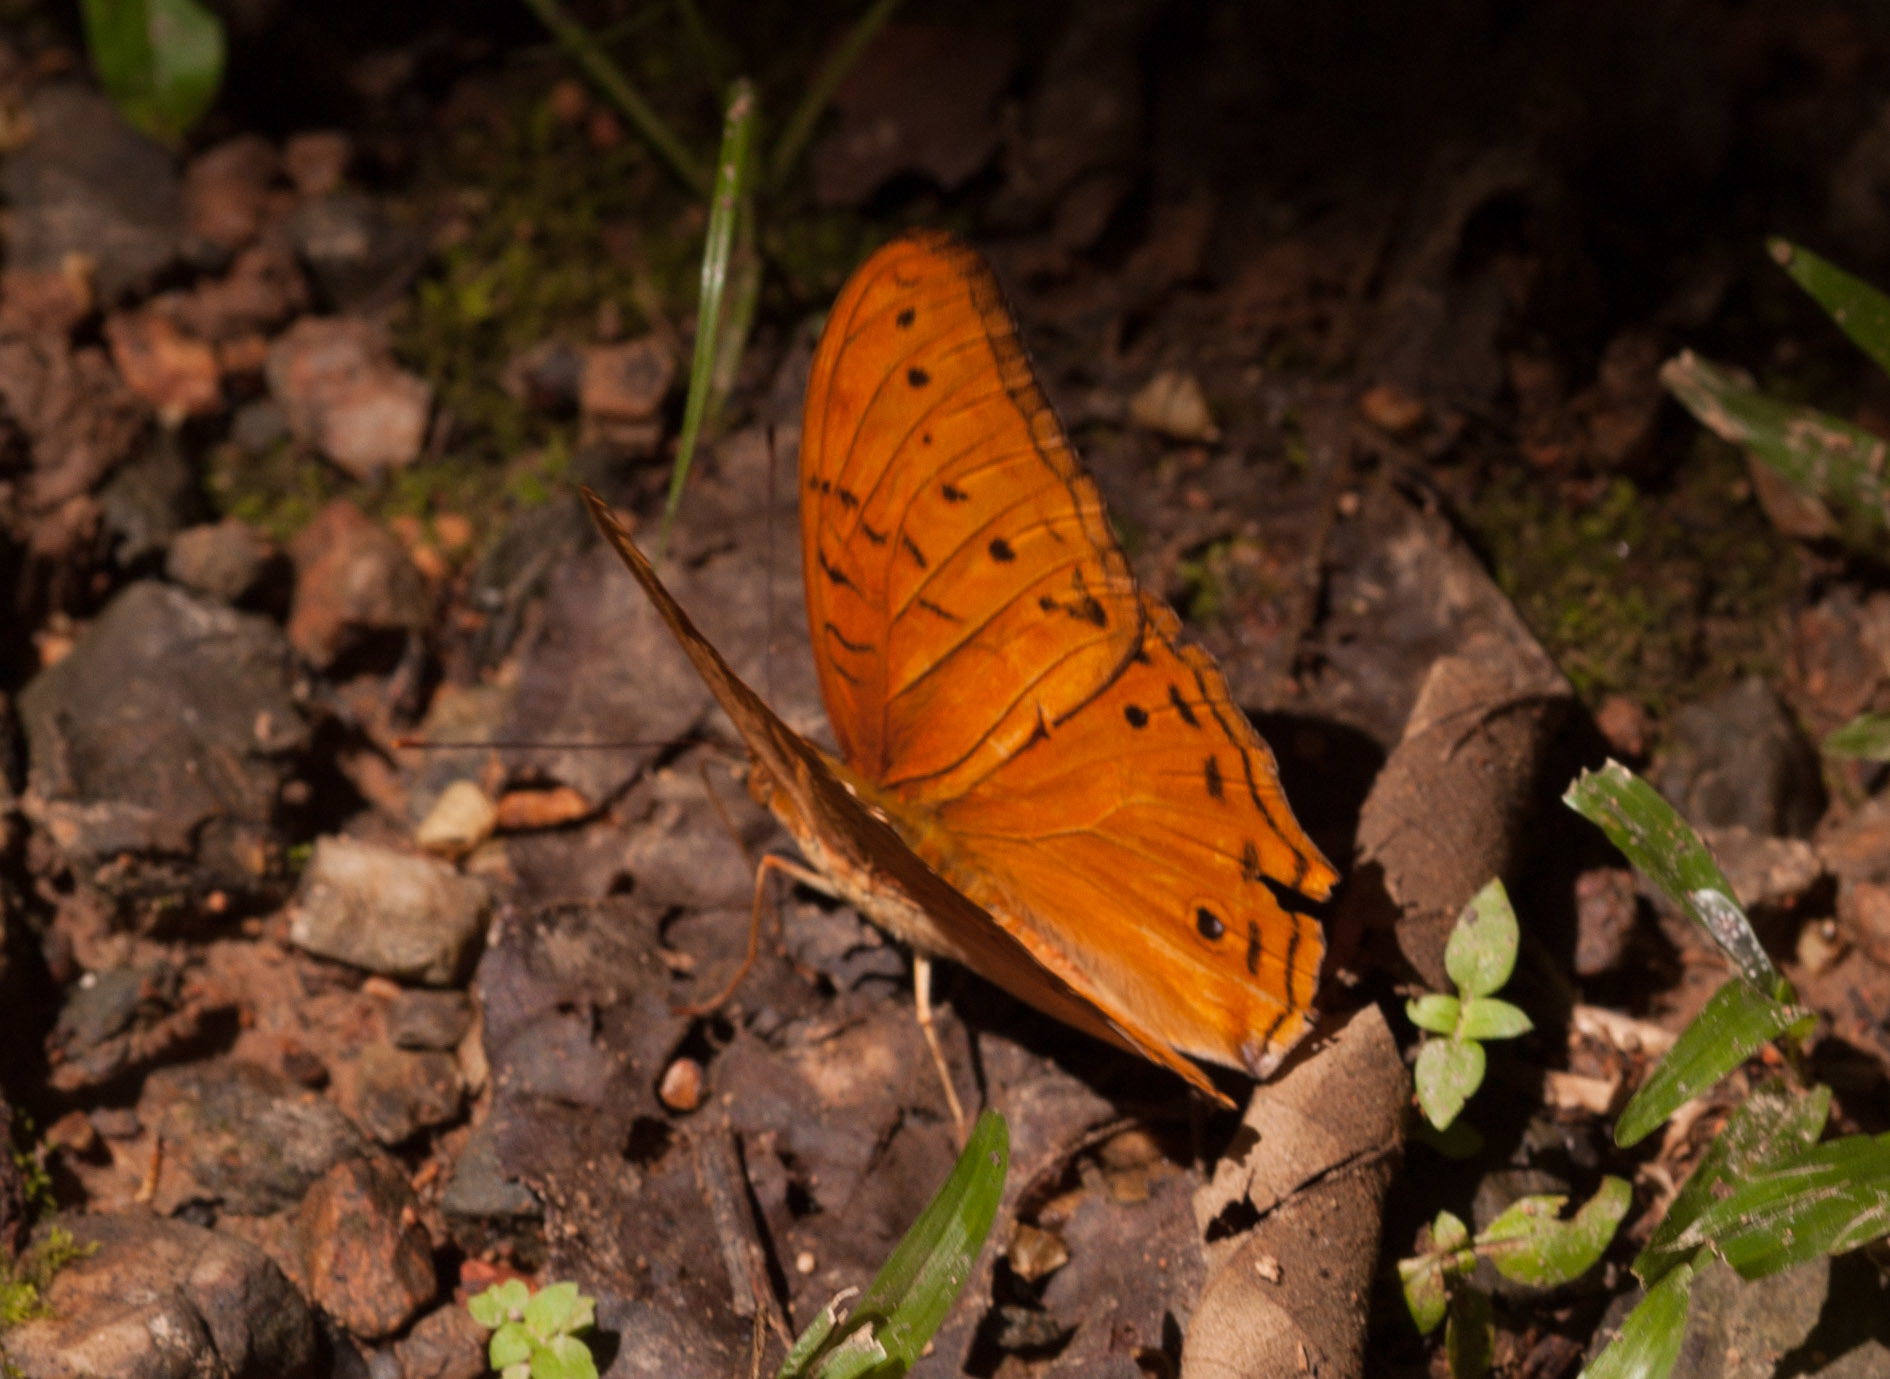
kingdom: Animalia
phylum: Arthropoda
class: Insecta
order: Lepidoptera
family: Nymphalidae
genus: Vindula
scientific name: Vindula arsinoe
